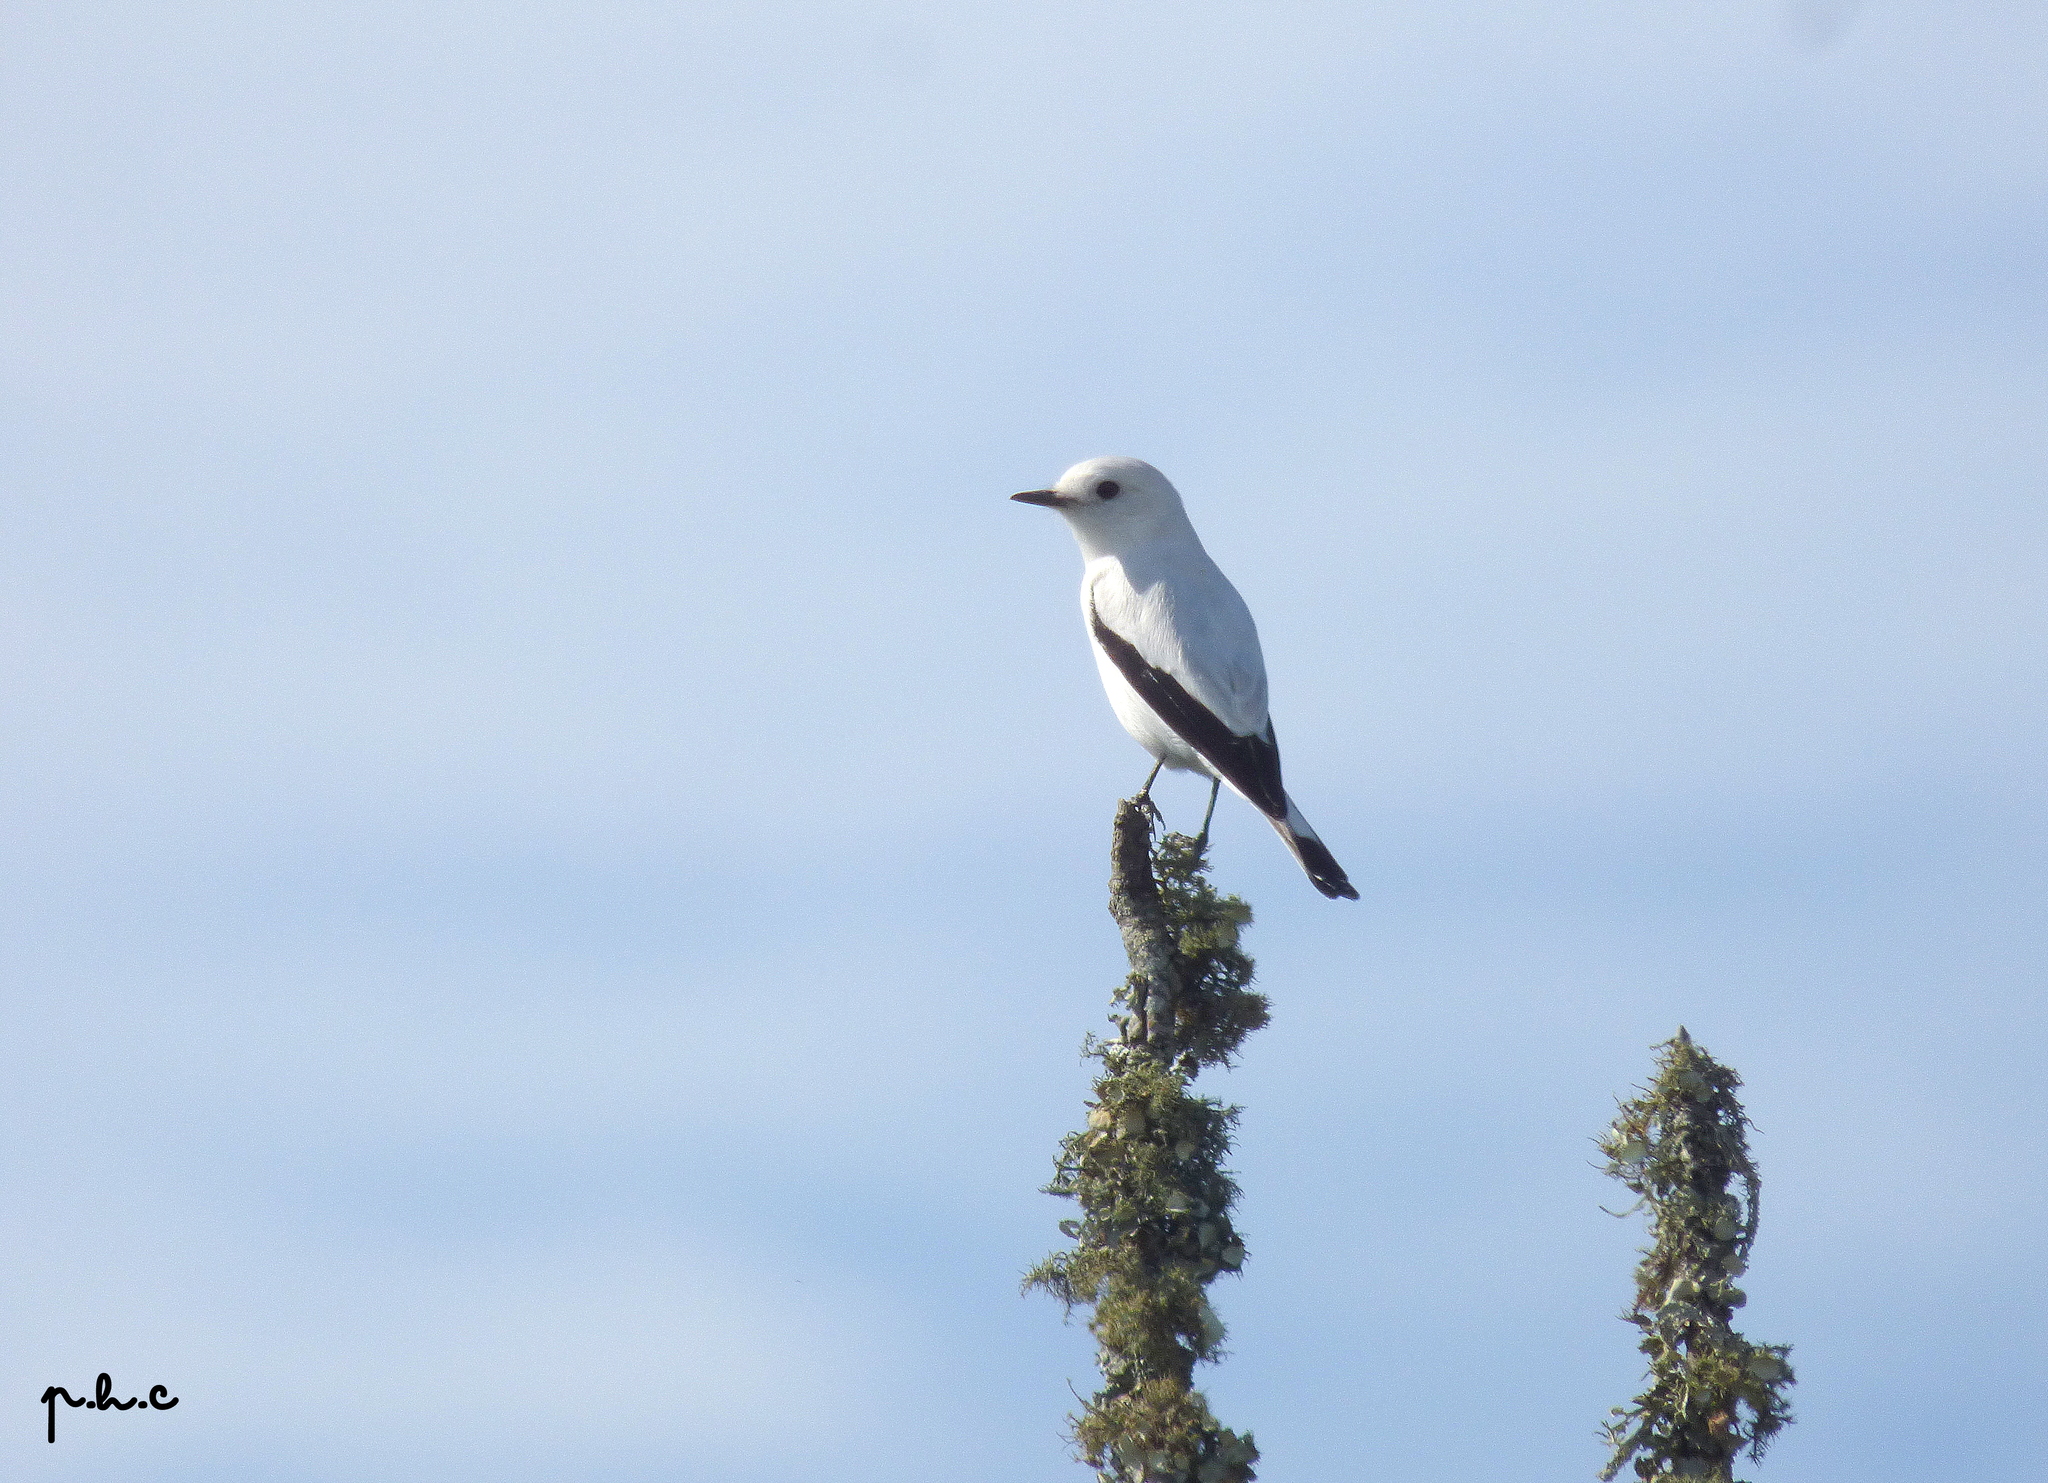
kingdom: Animalia
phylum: Chordata
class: Aves
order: Passeriformes
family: Tyrannidae
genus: Xolmis
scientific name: Xolmis irupero
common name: White monjita
